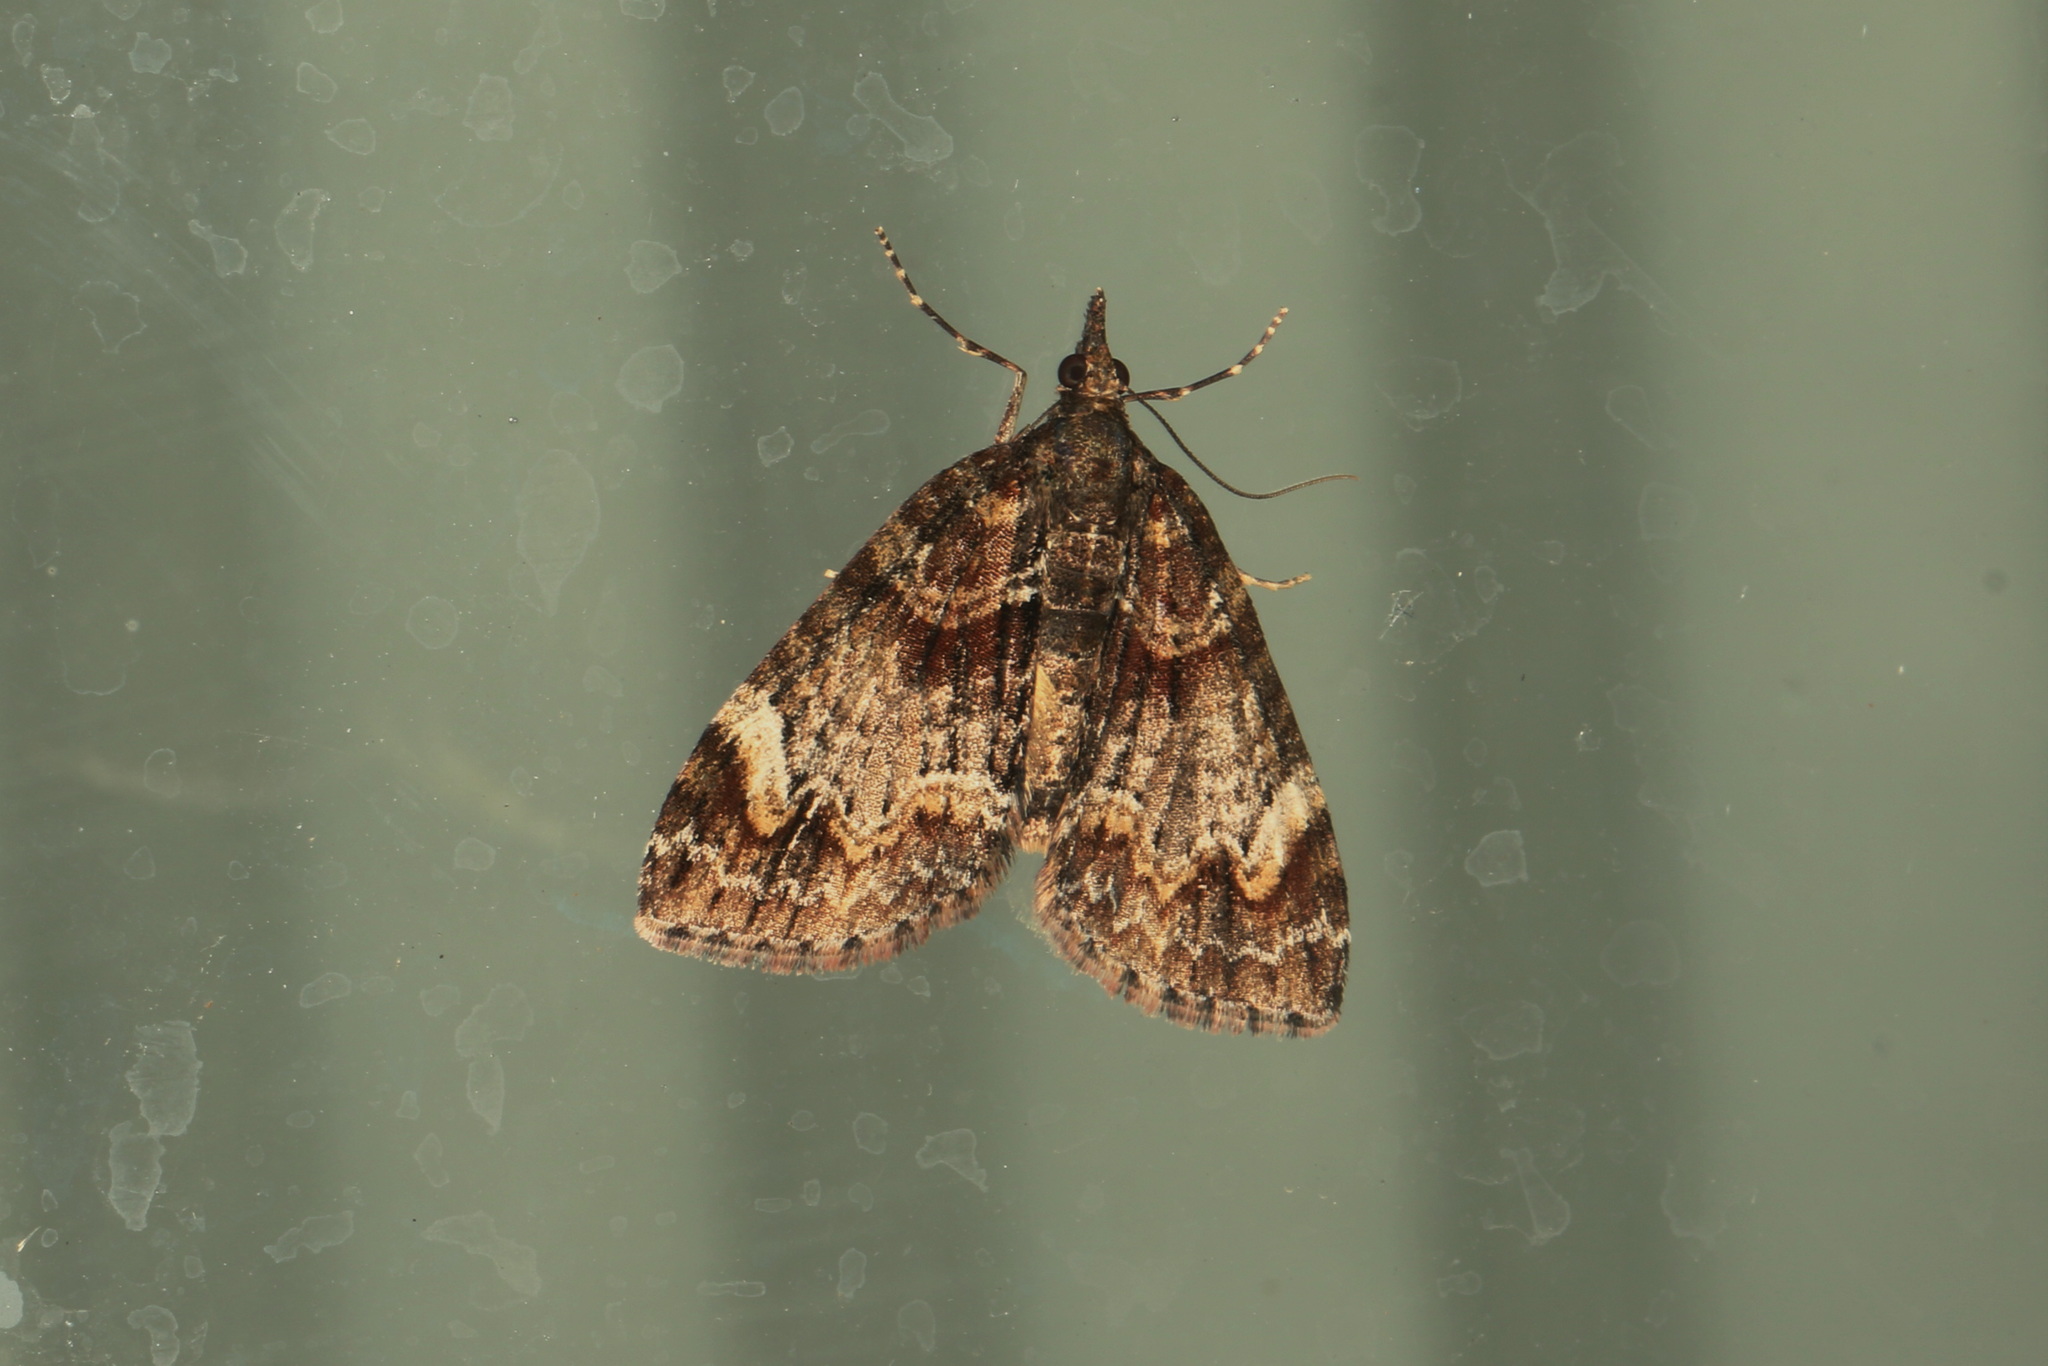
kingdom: Animalia
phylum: Arthropoda
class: Insecta
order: Lepidoptera
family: Geometridae
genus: Microdes
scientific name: Microdes diplodonta
